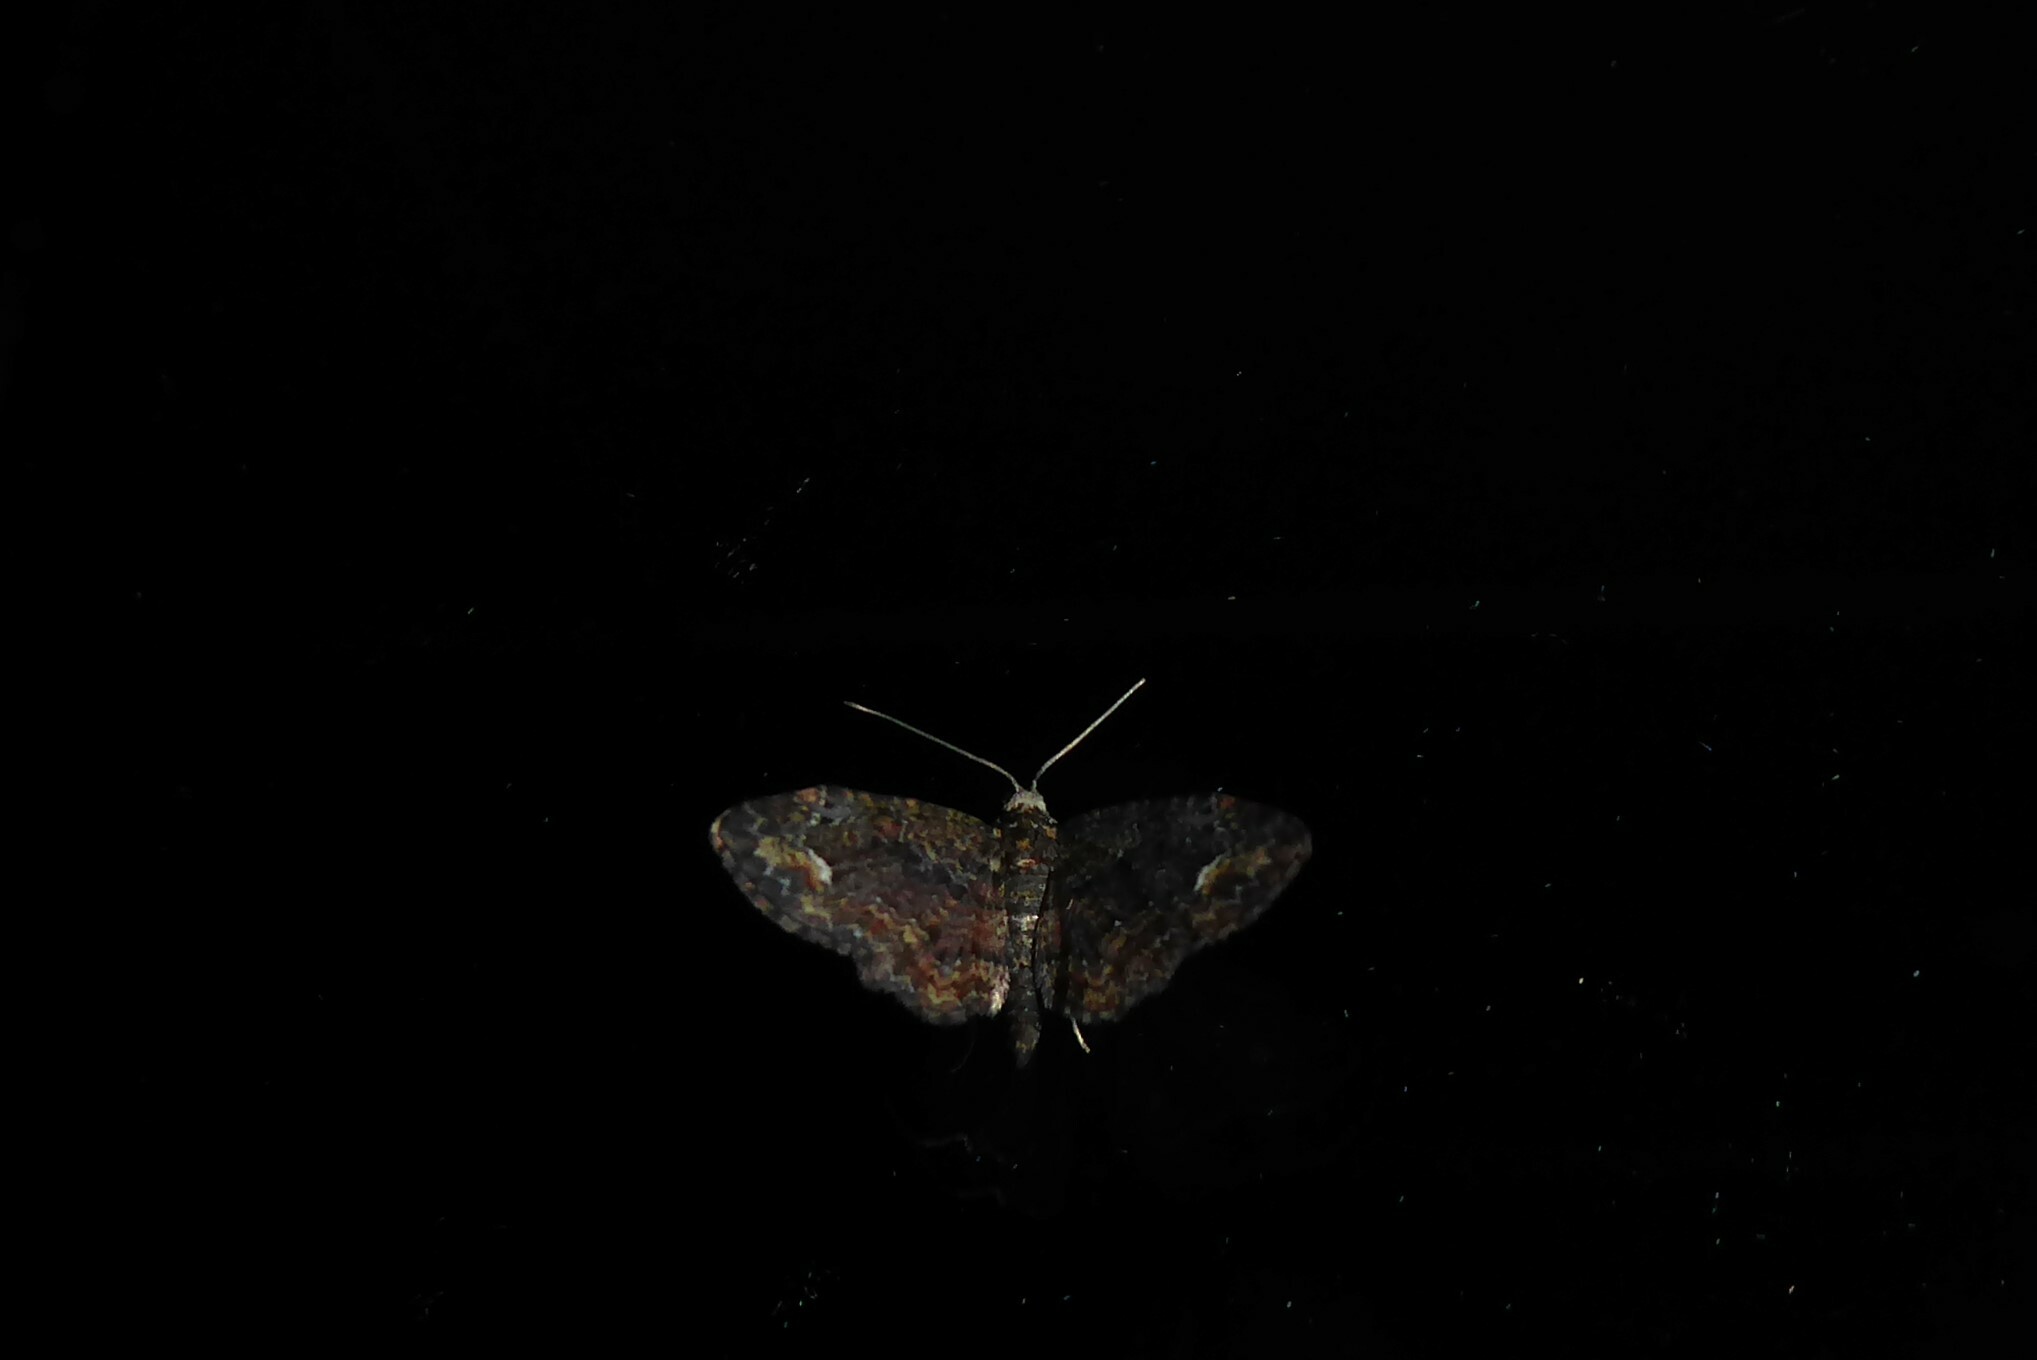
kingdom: Animalia
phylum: Arthropoda
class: Insecta
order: Lepidoptera
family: Geometridae
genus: Pasiphilodes
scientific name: Pasiphilodes testulata
